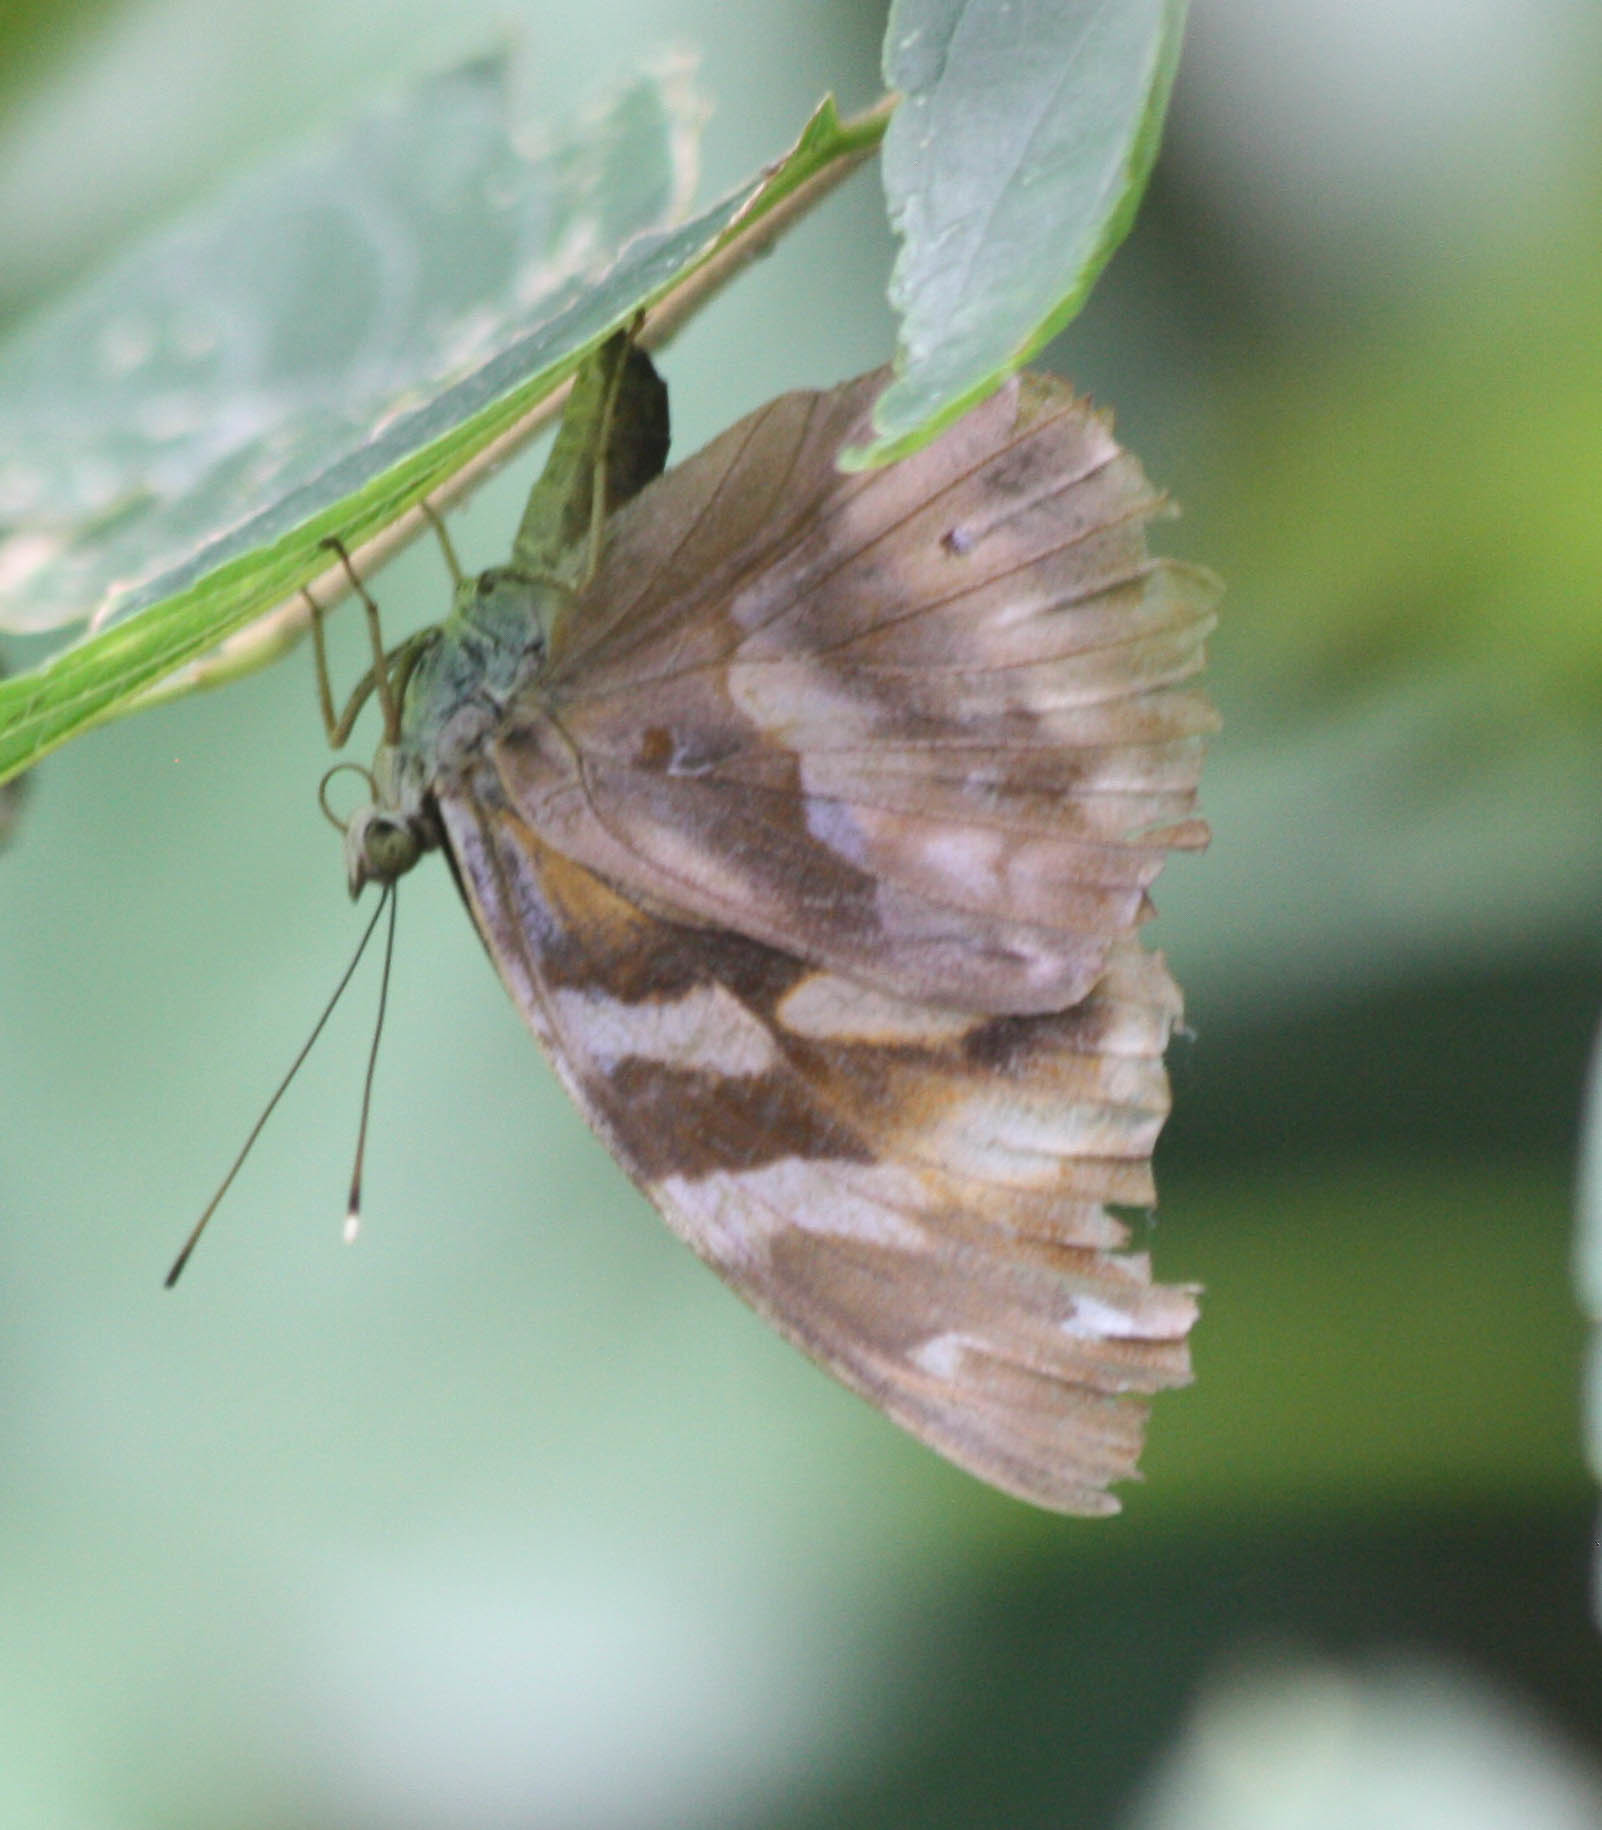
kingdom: Animalia
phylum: Arthropoda
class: Insecta
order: Lepidoptera
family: Nymphalidae
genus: Herona
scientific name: Herona marathus
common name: Yellow pasha
